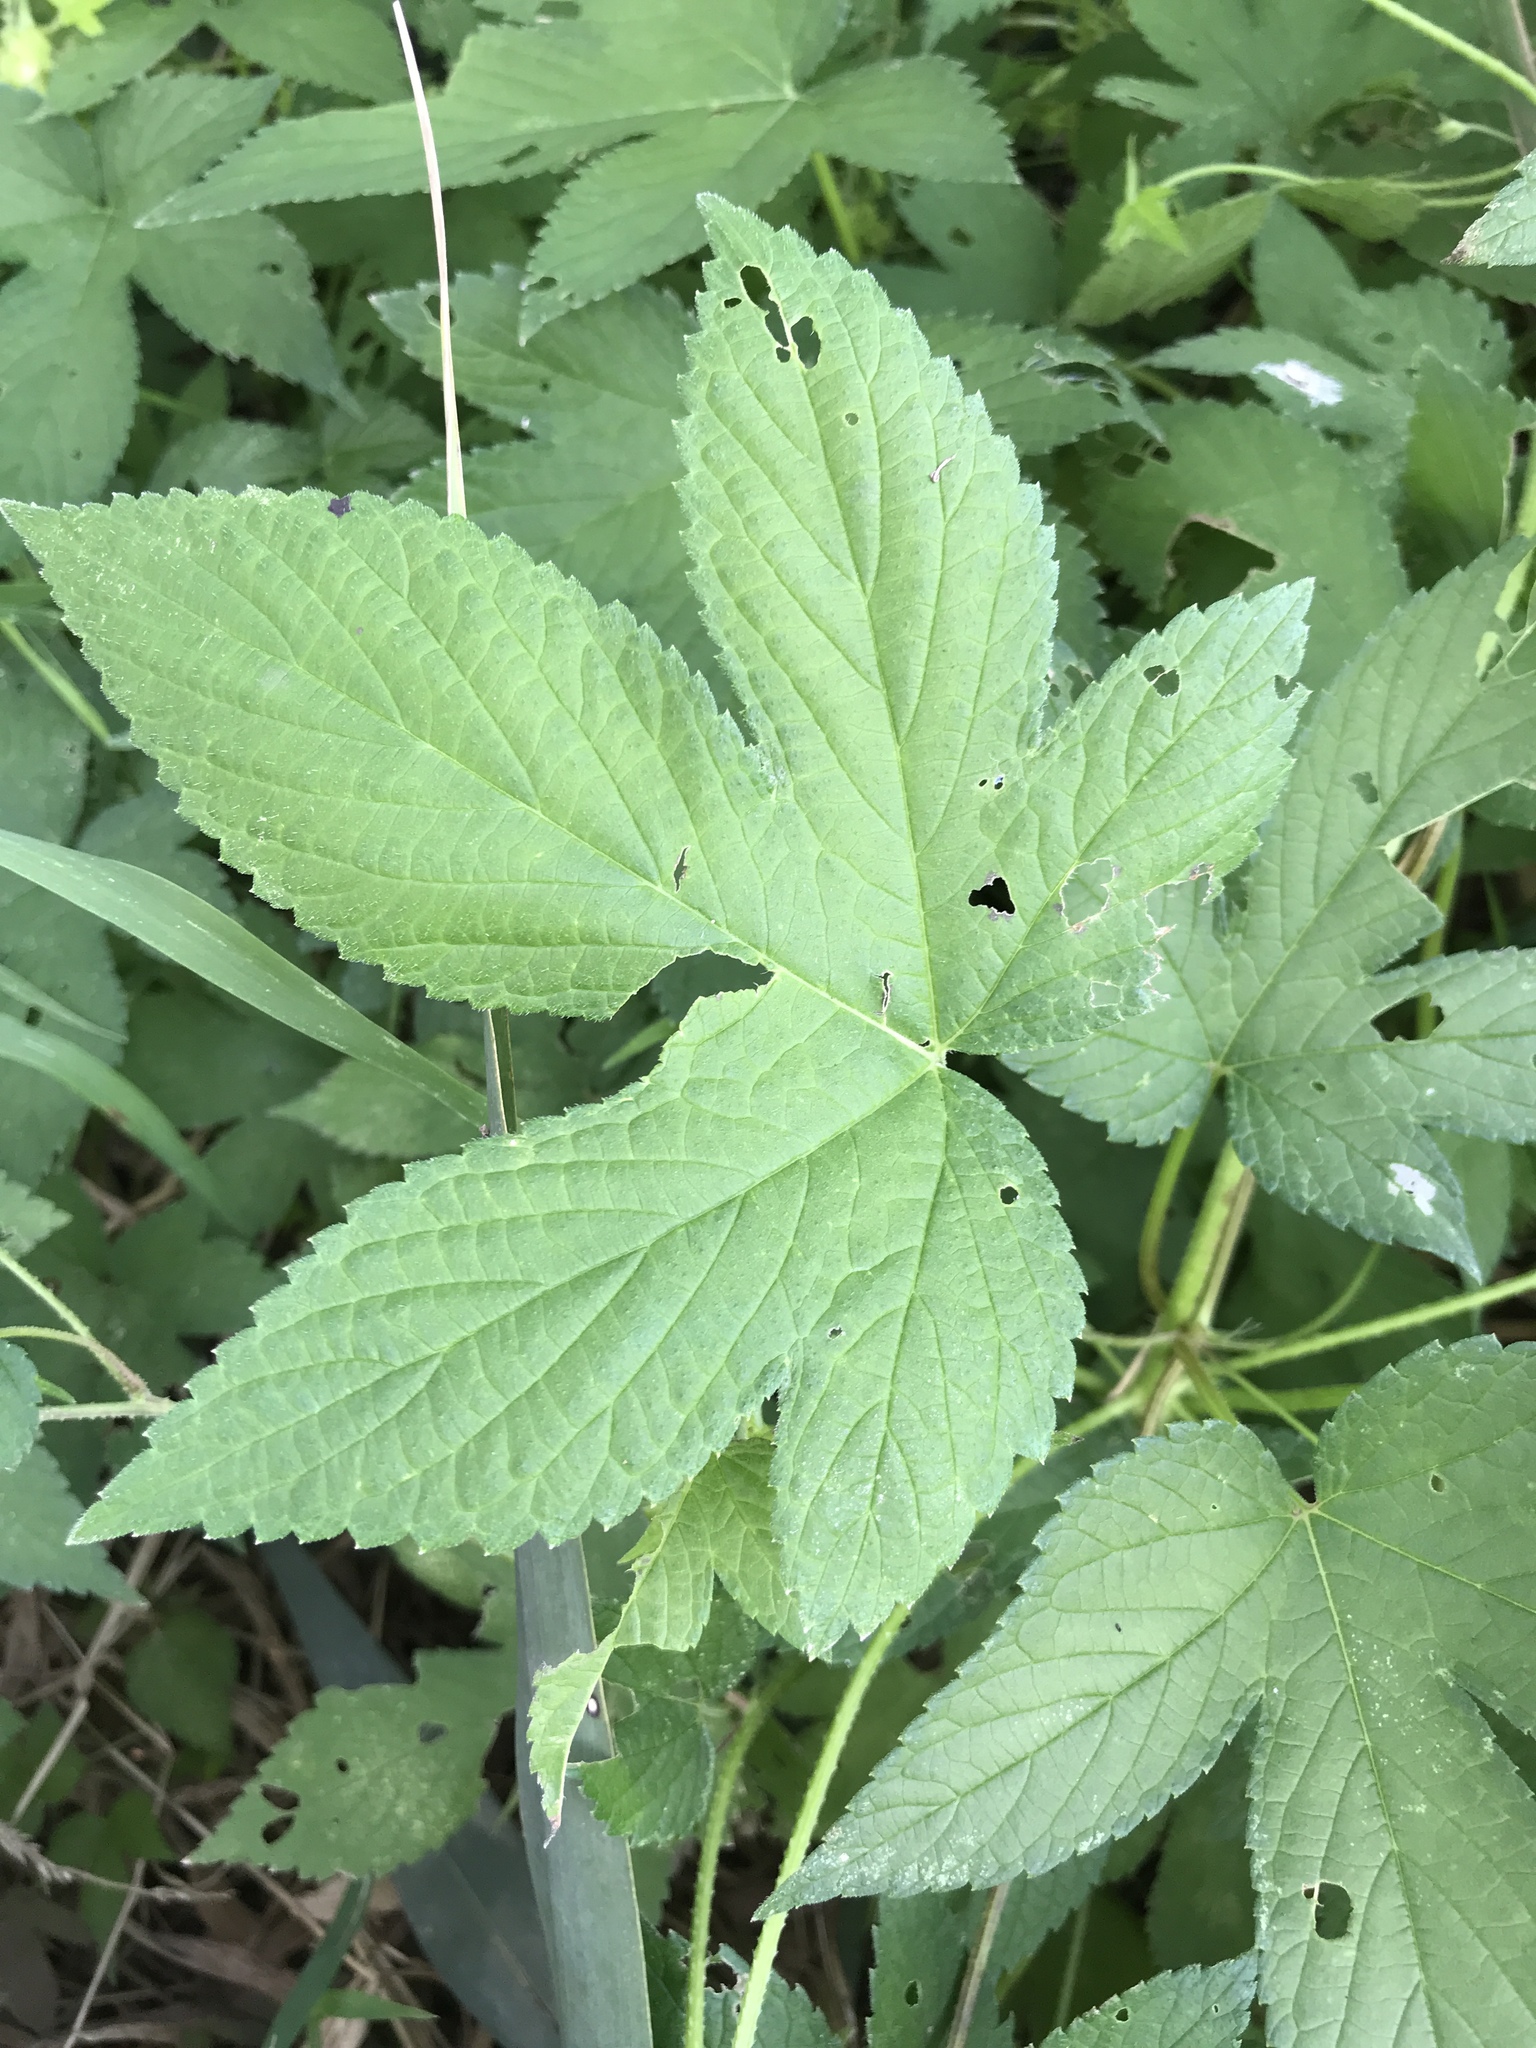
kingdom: Plantae
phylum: Tracheophyta
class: Magnoliopsida
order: Rosales
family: Cannabaceae
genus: Humulus
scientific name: Humulus scandens
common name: Japanese hop
